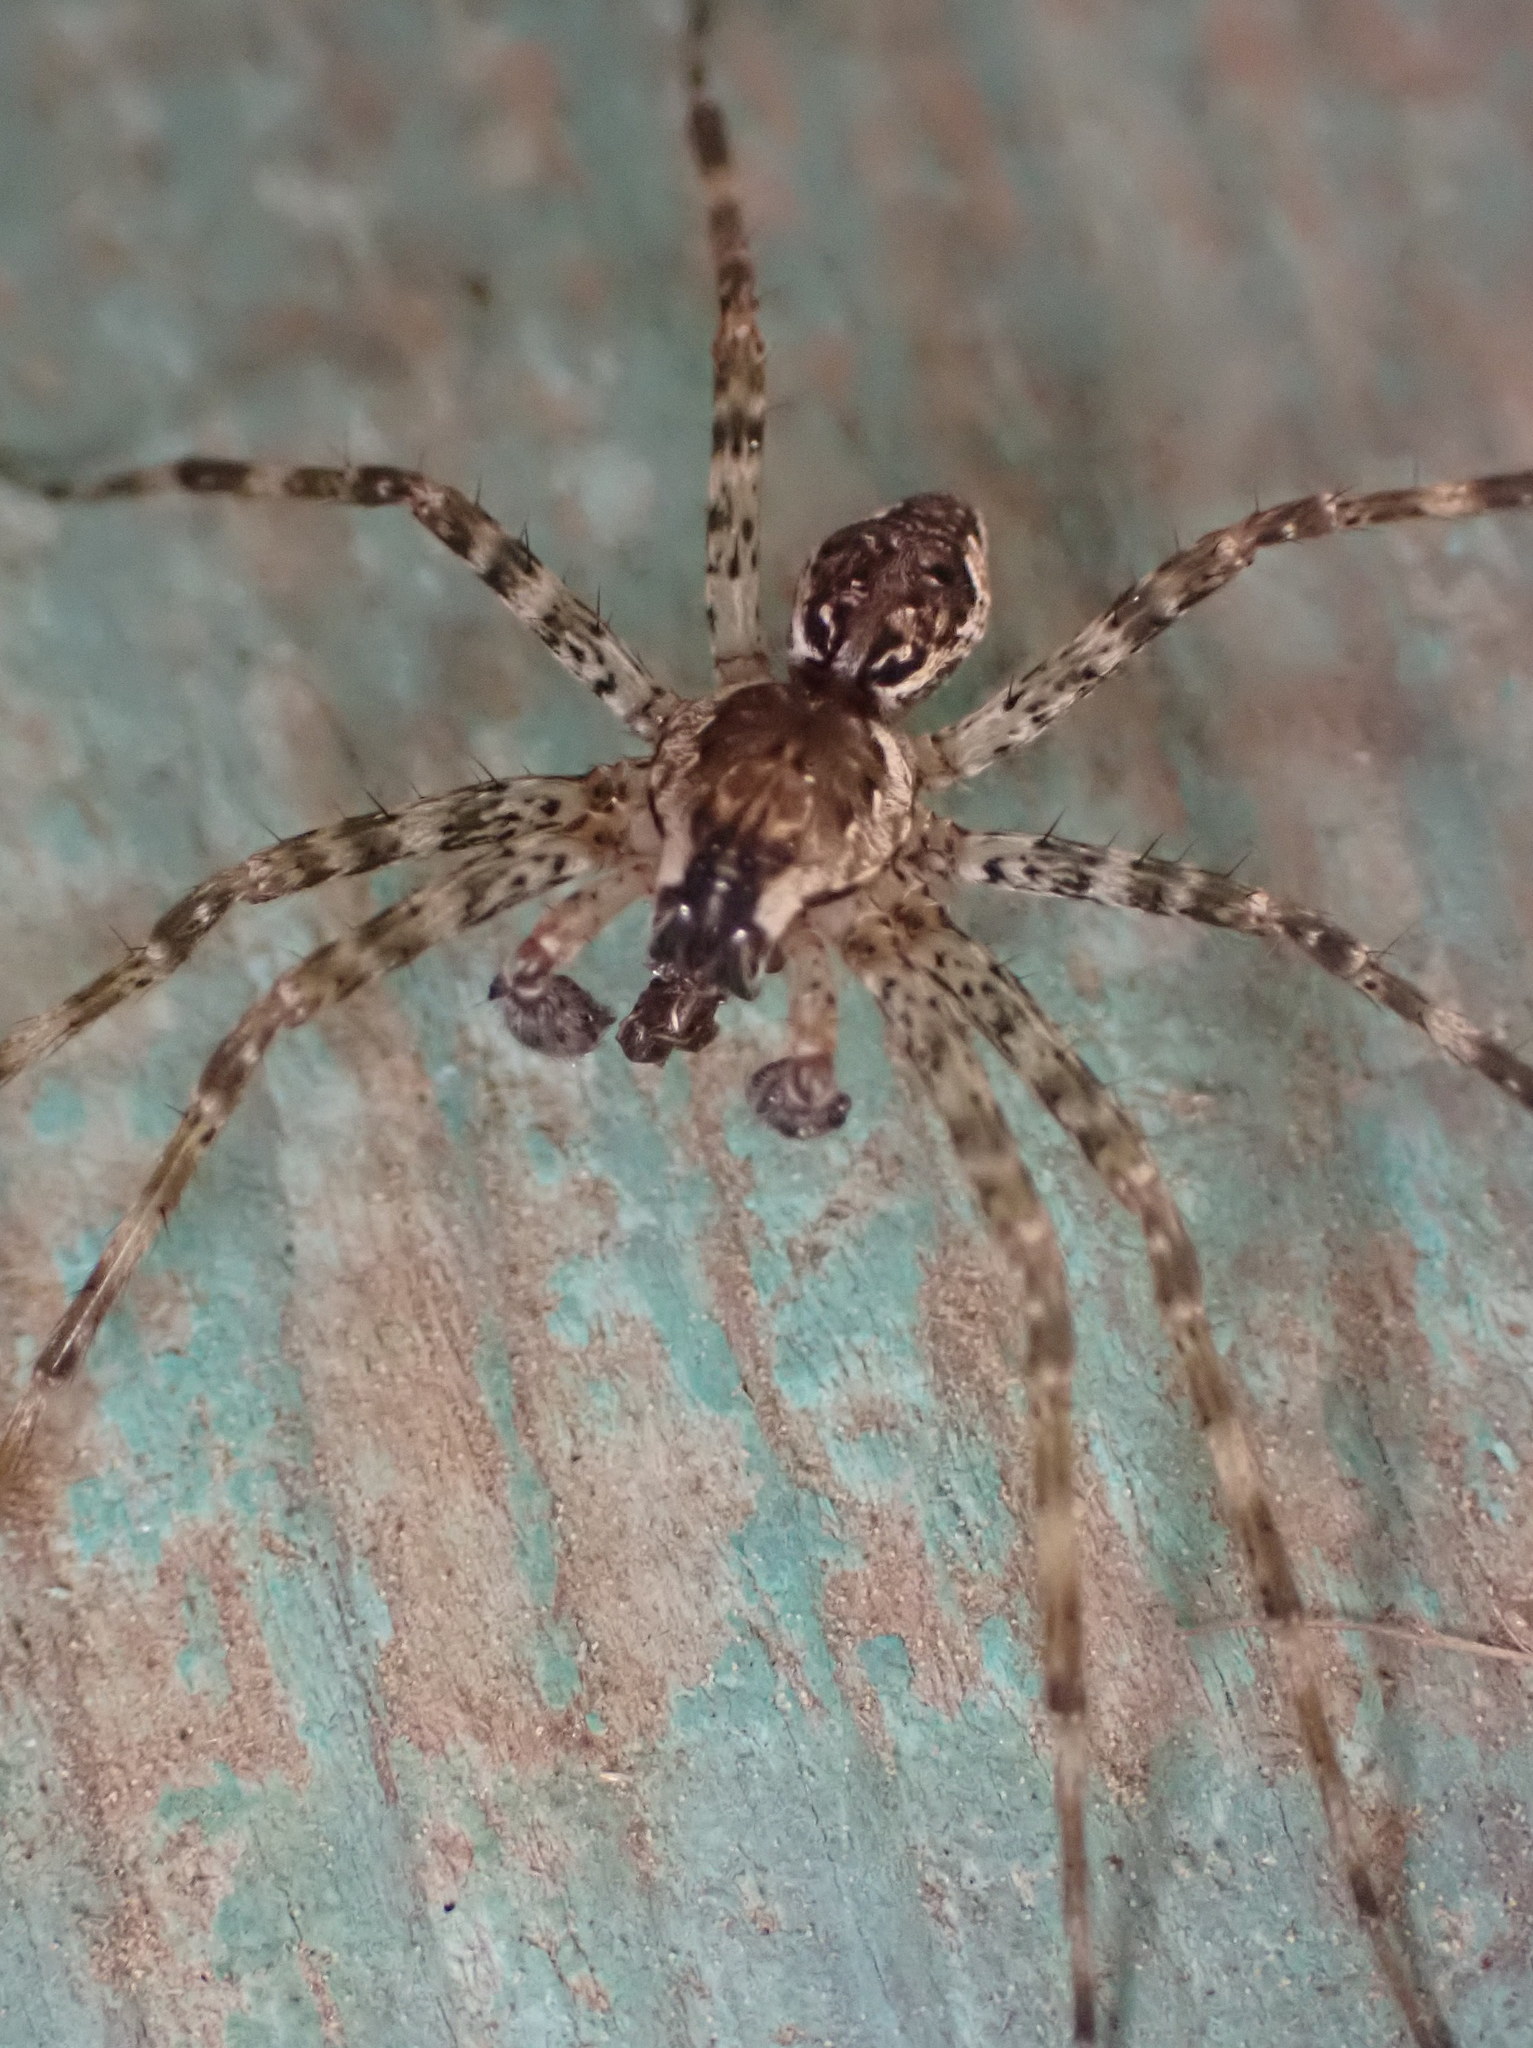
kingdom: Animalia
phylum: Arthropoda
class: Arachnida
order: Araneae
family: Pisauridae
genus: Dolomedes
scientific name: Dolomedes tenebrosus
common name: Dark fishing spider
